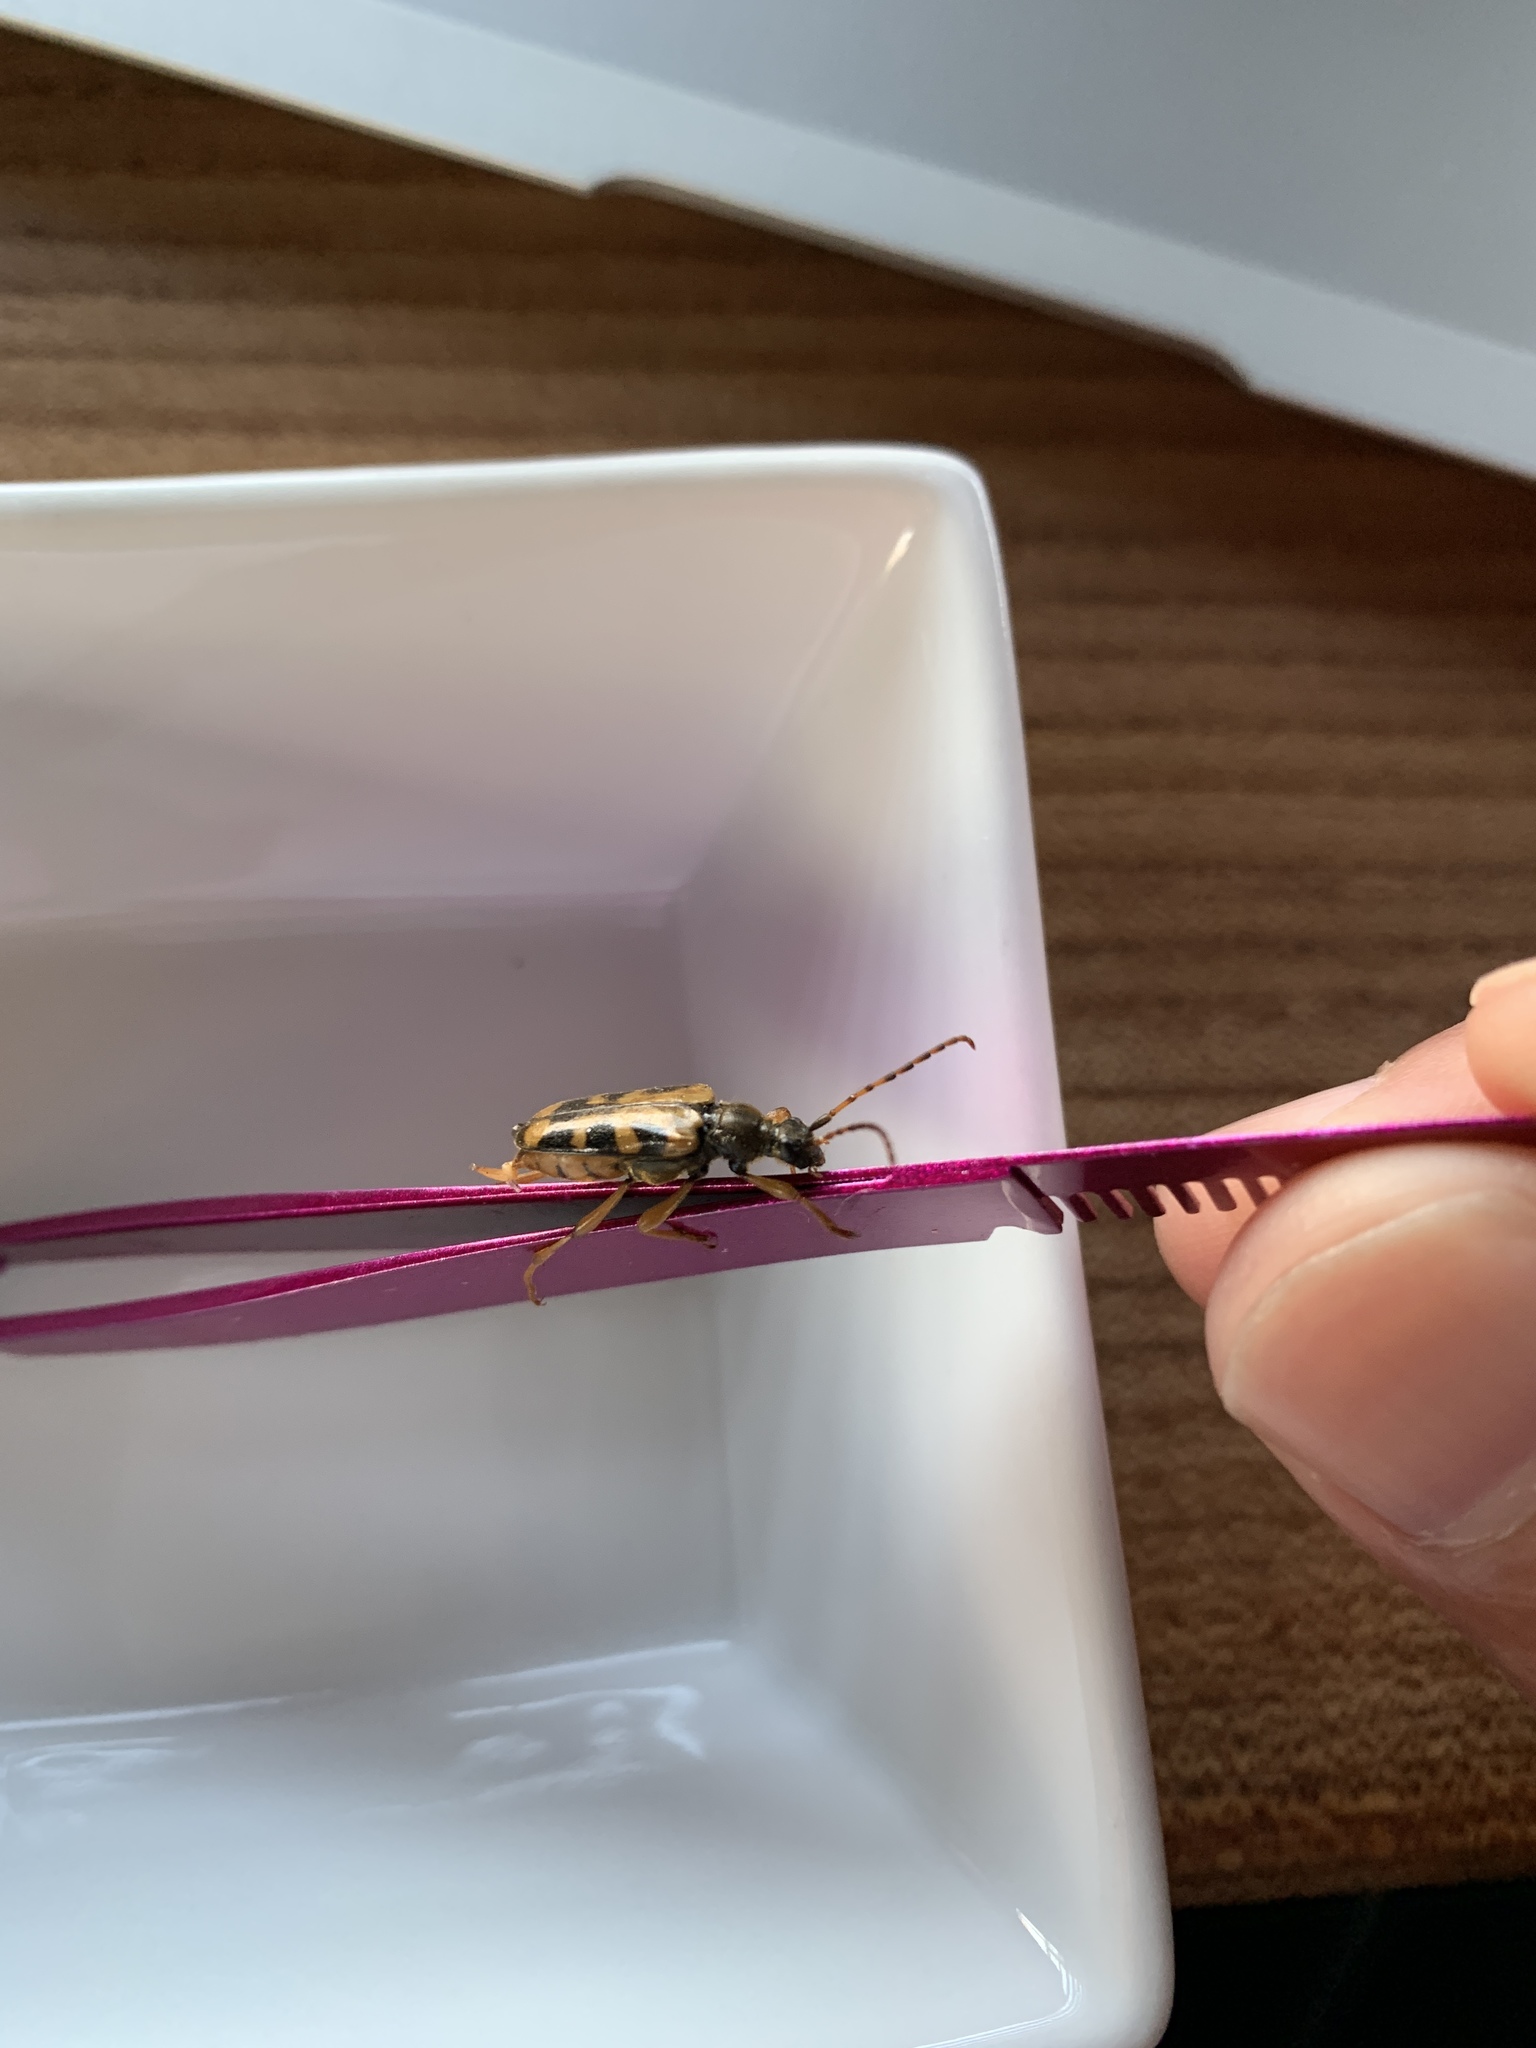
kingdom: Animalia
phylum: Arthropoda
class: Insecta
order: Coleoptera
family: Cerambycidae
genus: Xestoleptura
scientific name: Xestoleptura crassipes
